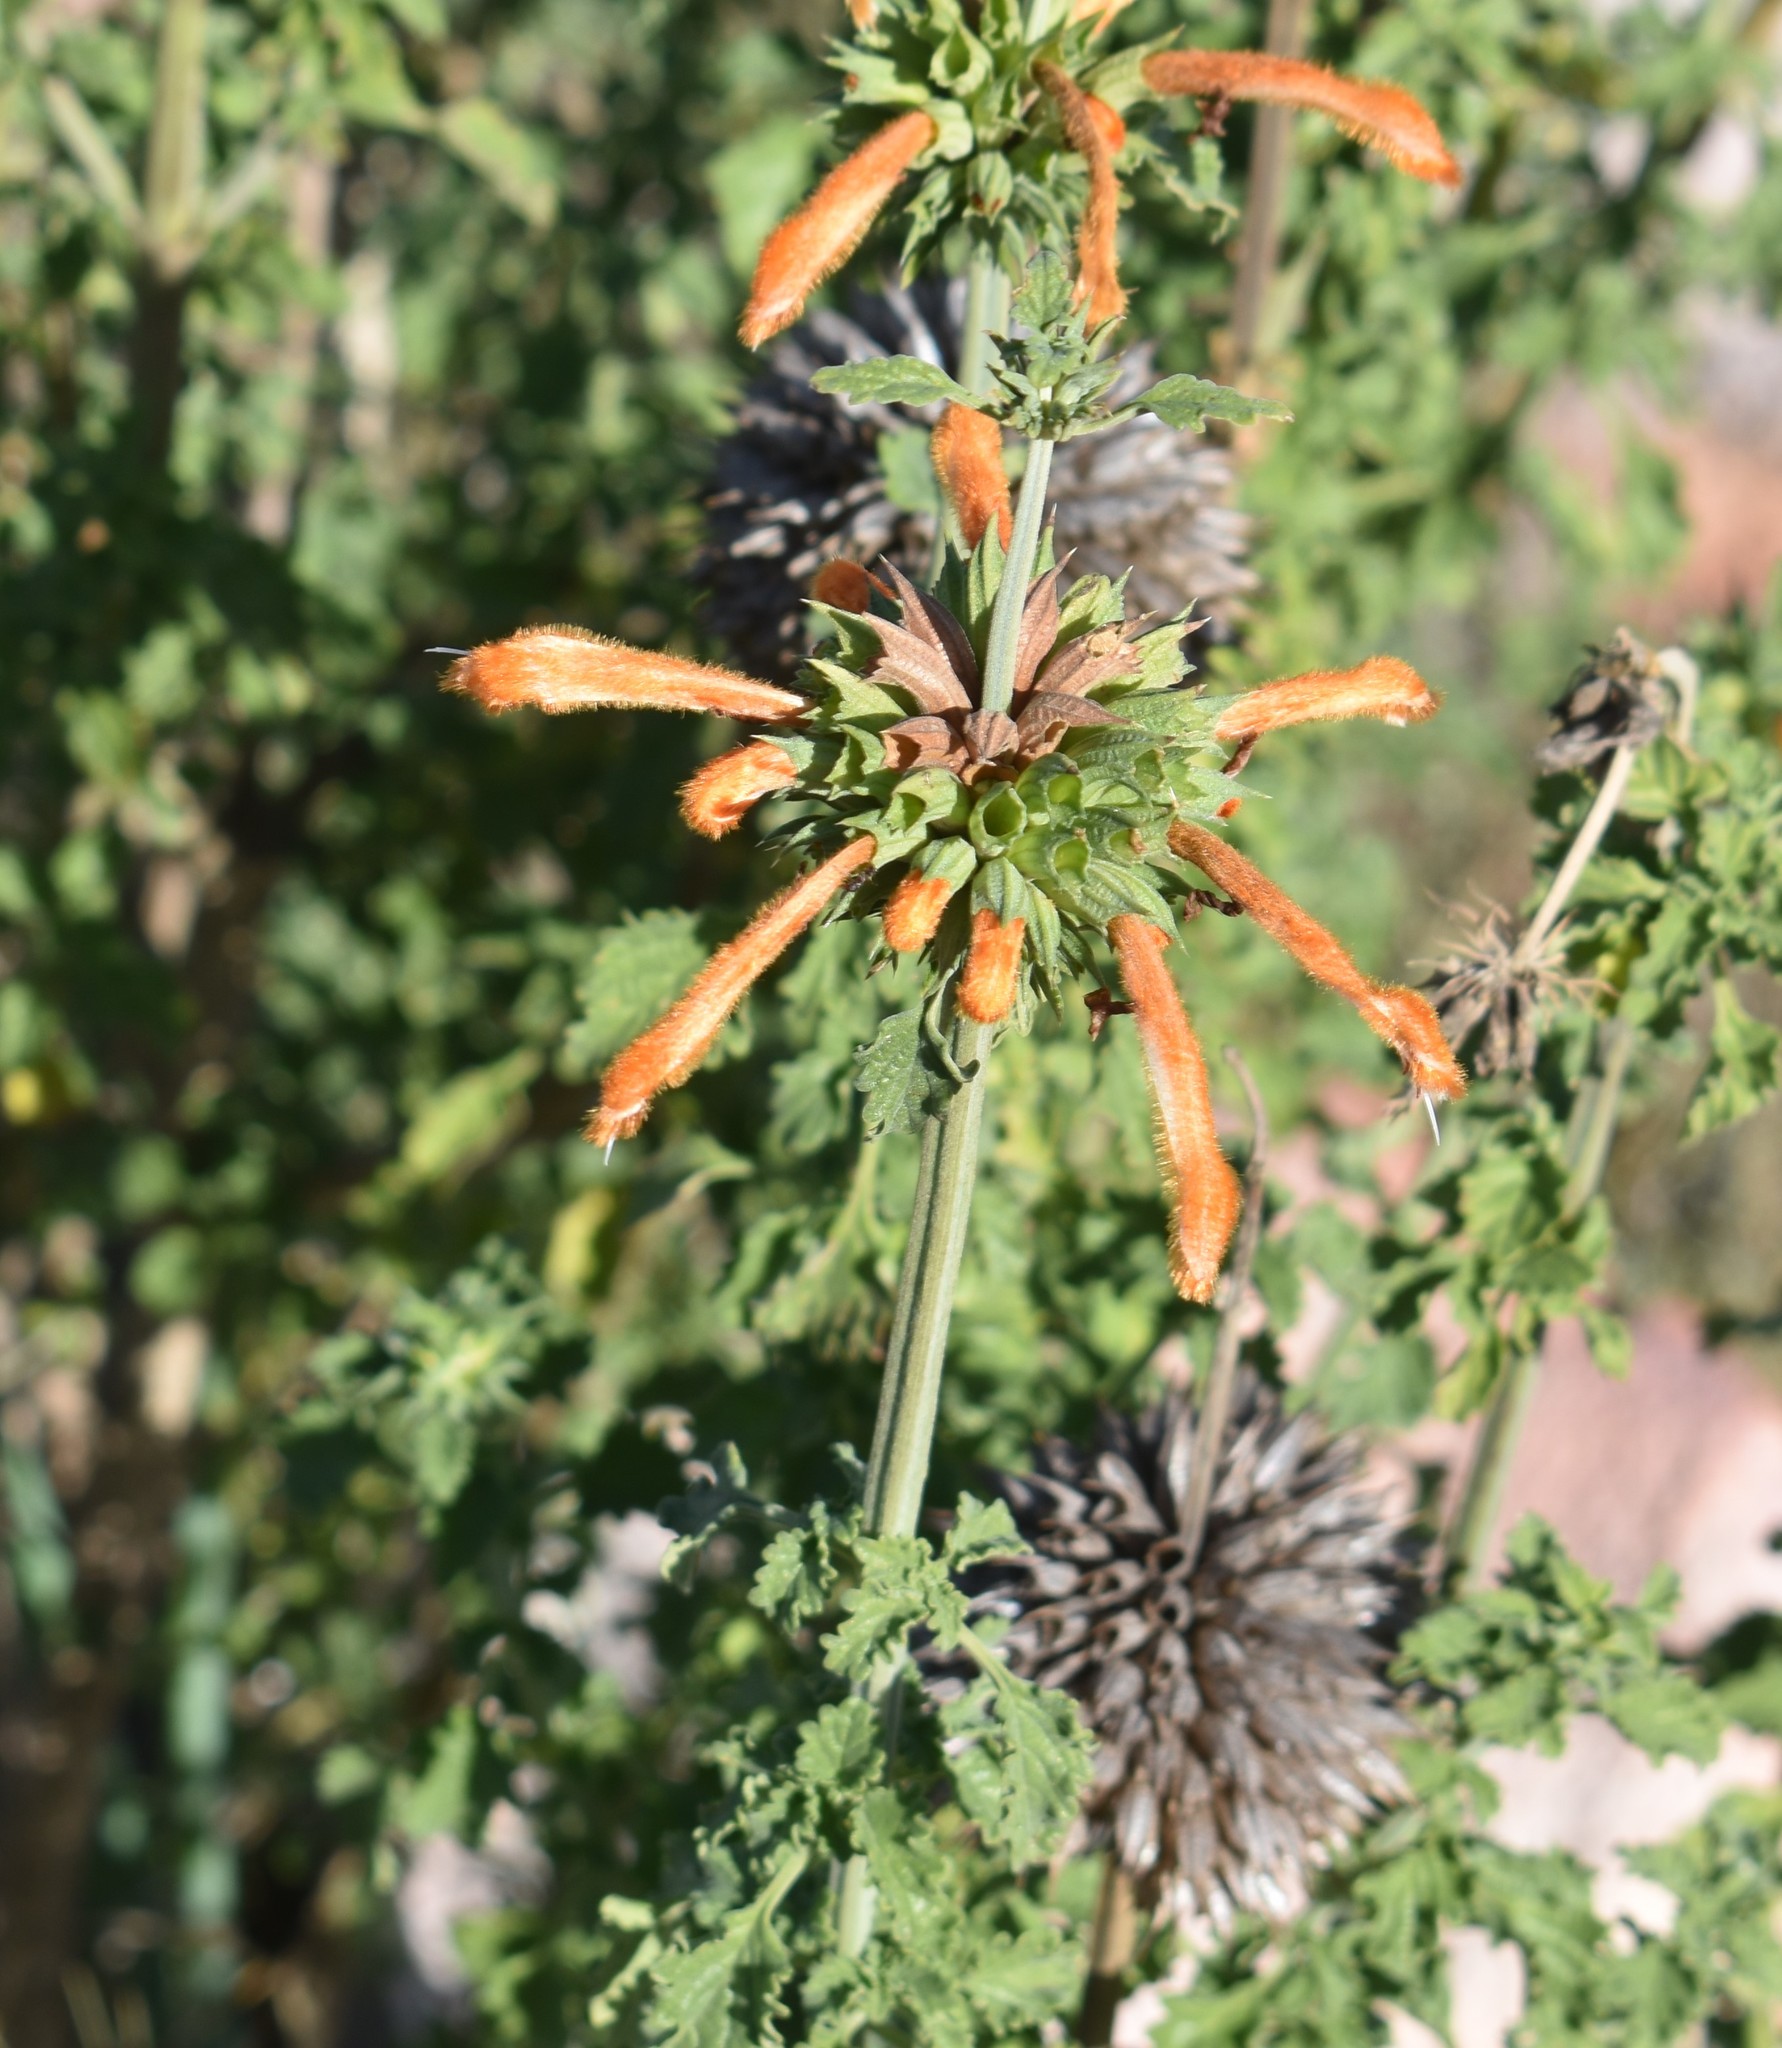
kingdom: Plantae
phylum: Tracheophyta
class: Magnoliopsida
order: Lamiales
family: Lamiaceae
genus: Leonotis
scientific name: Leonotis ocymifolia
